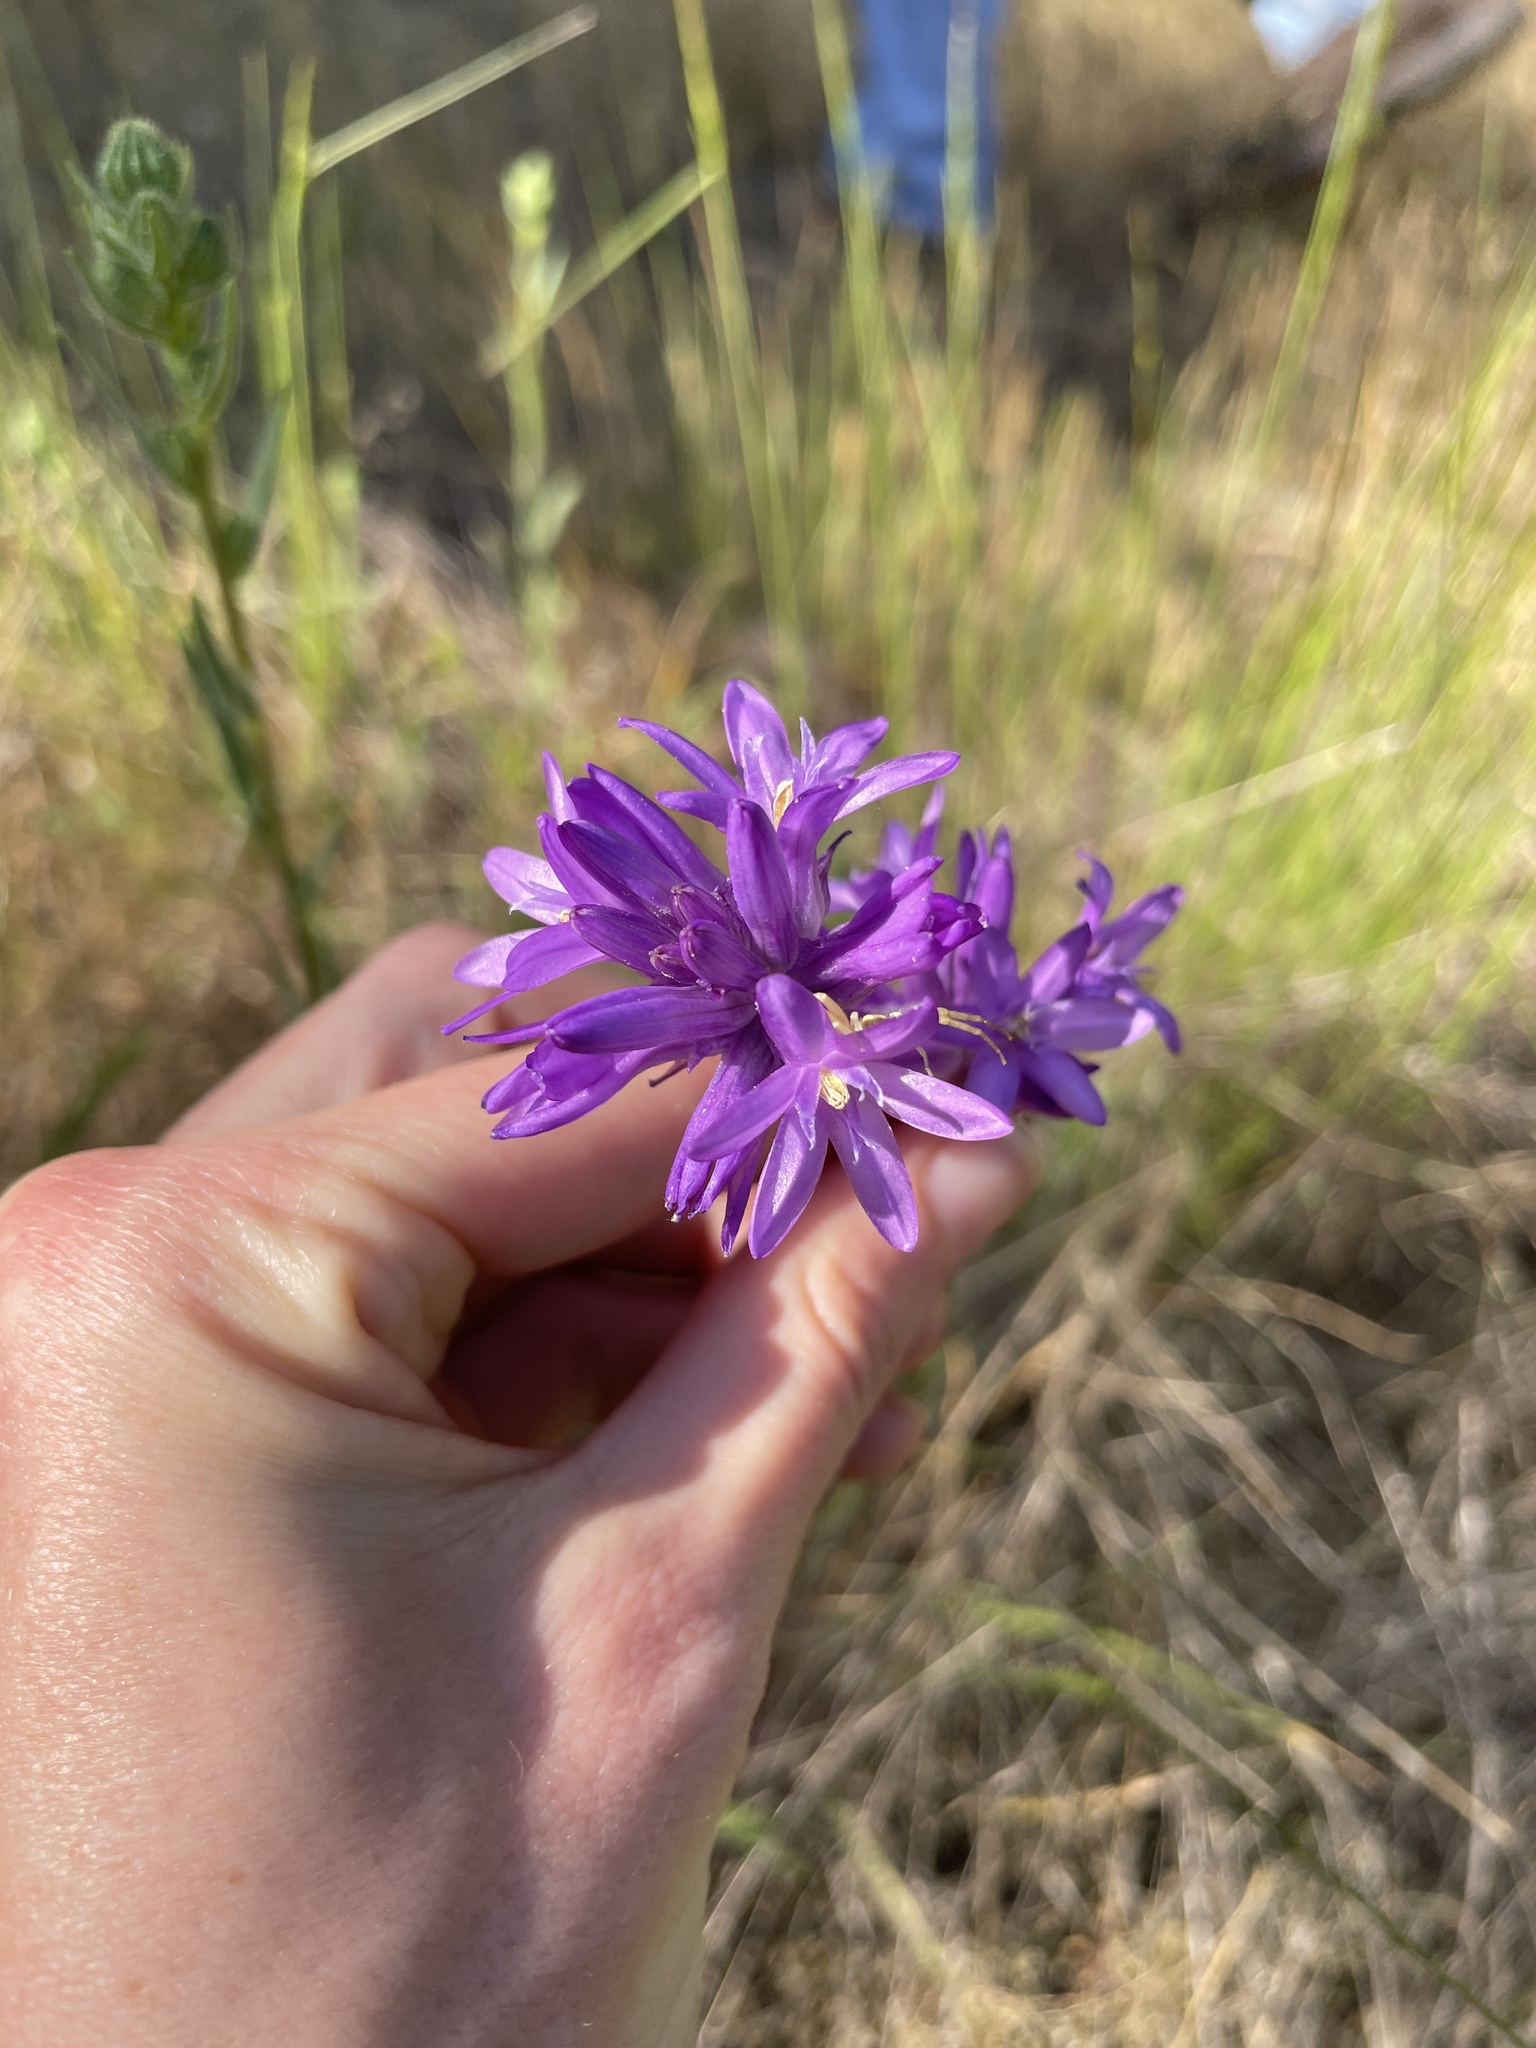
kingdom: Plantae
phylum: Tracheophyta
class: Liliopsida
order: Asparagales
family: Asparagaceae
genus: Dichelostemma
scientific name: Dichelostemma congestum
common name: Fork-tooth ookow
